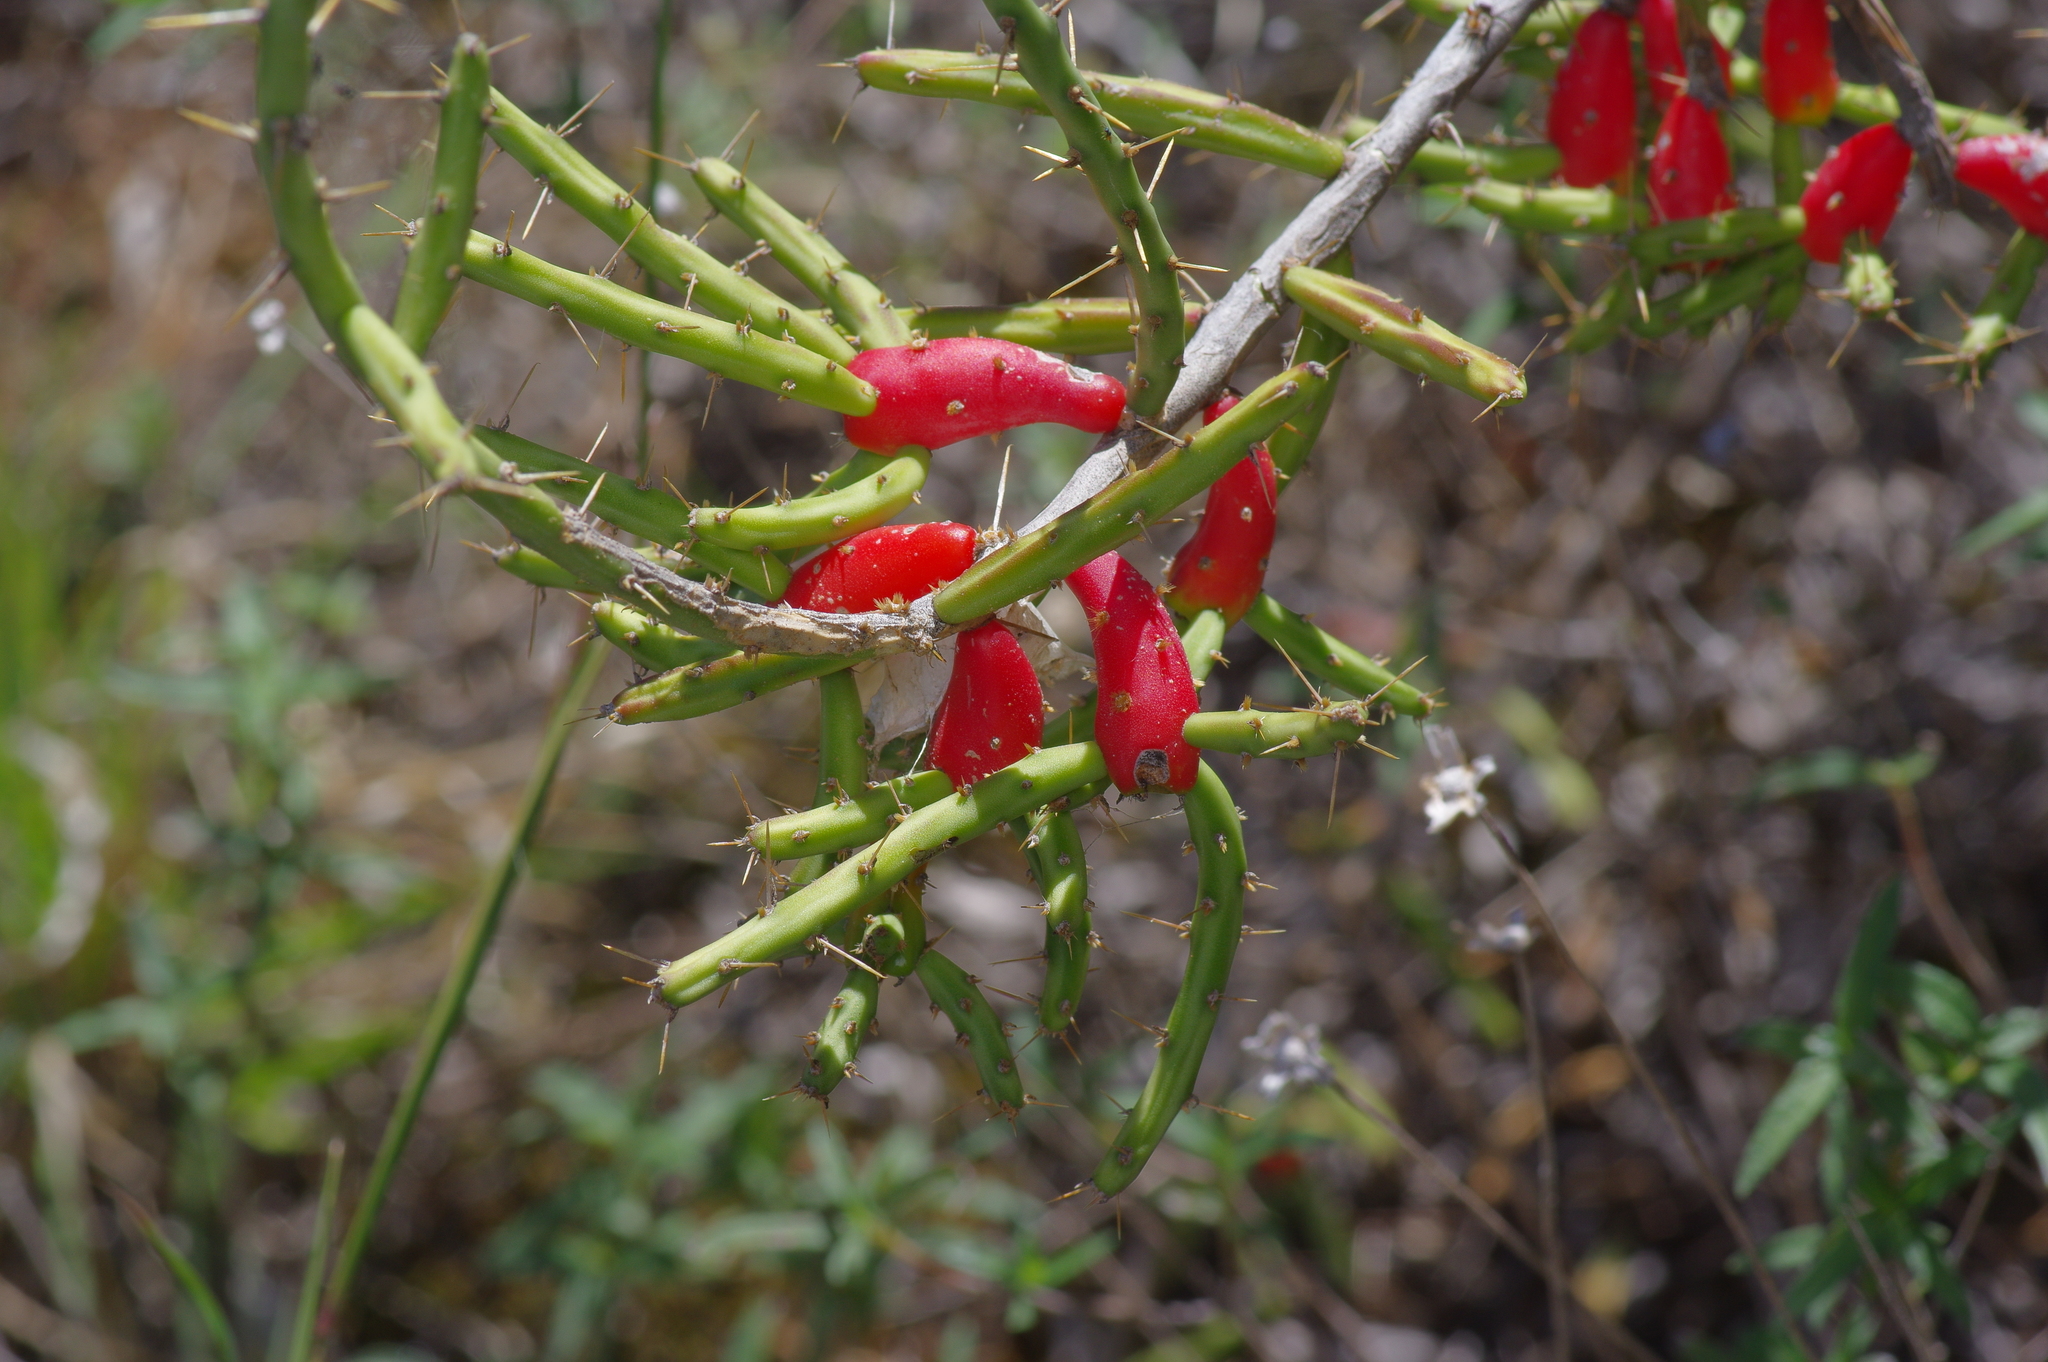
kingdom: Plantae
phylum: Tracheophyta
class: Magnoliopsida
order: Caryophyllales
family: Cactaceae
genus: Cylindropuntia
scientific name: Cylindropuntia leptocaulis
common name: Christmas cactus
